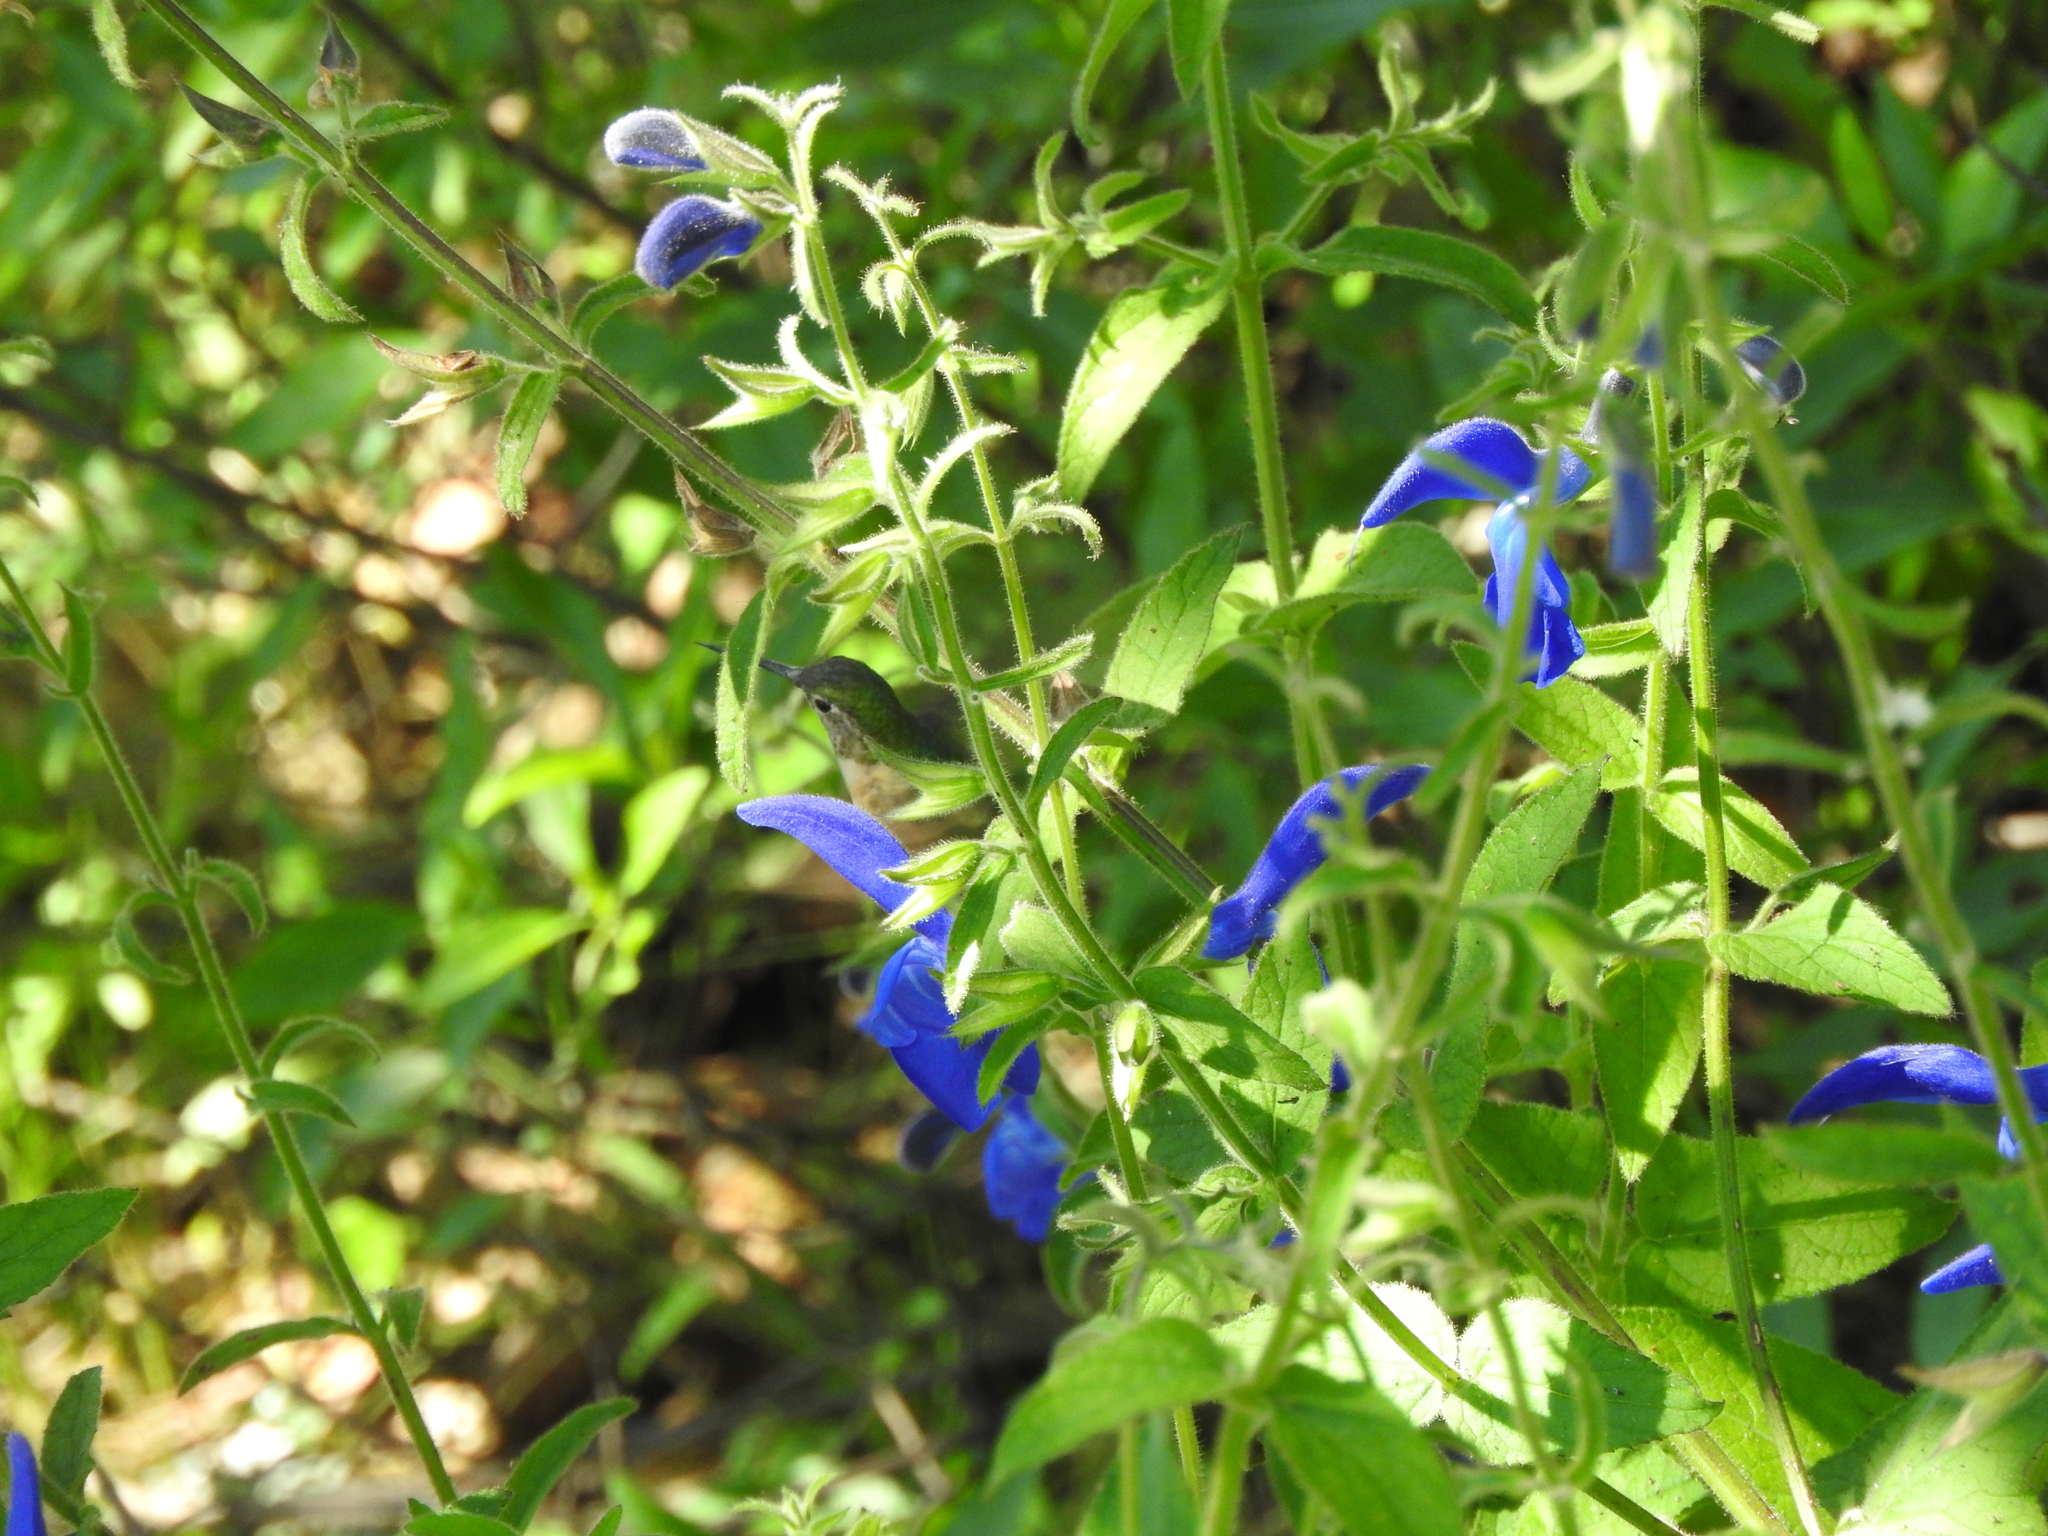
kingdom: Plantae
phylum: Tracheophyta
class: Magnoliopsida
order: Lamiales
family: Lamiaceae
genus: Salvia
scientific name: Salvia patens
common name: Blue sage
